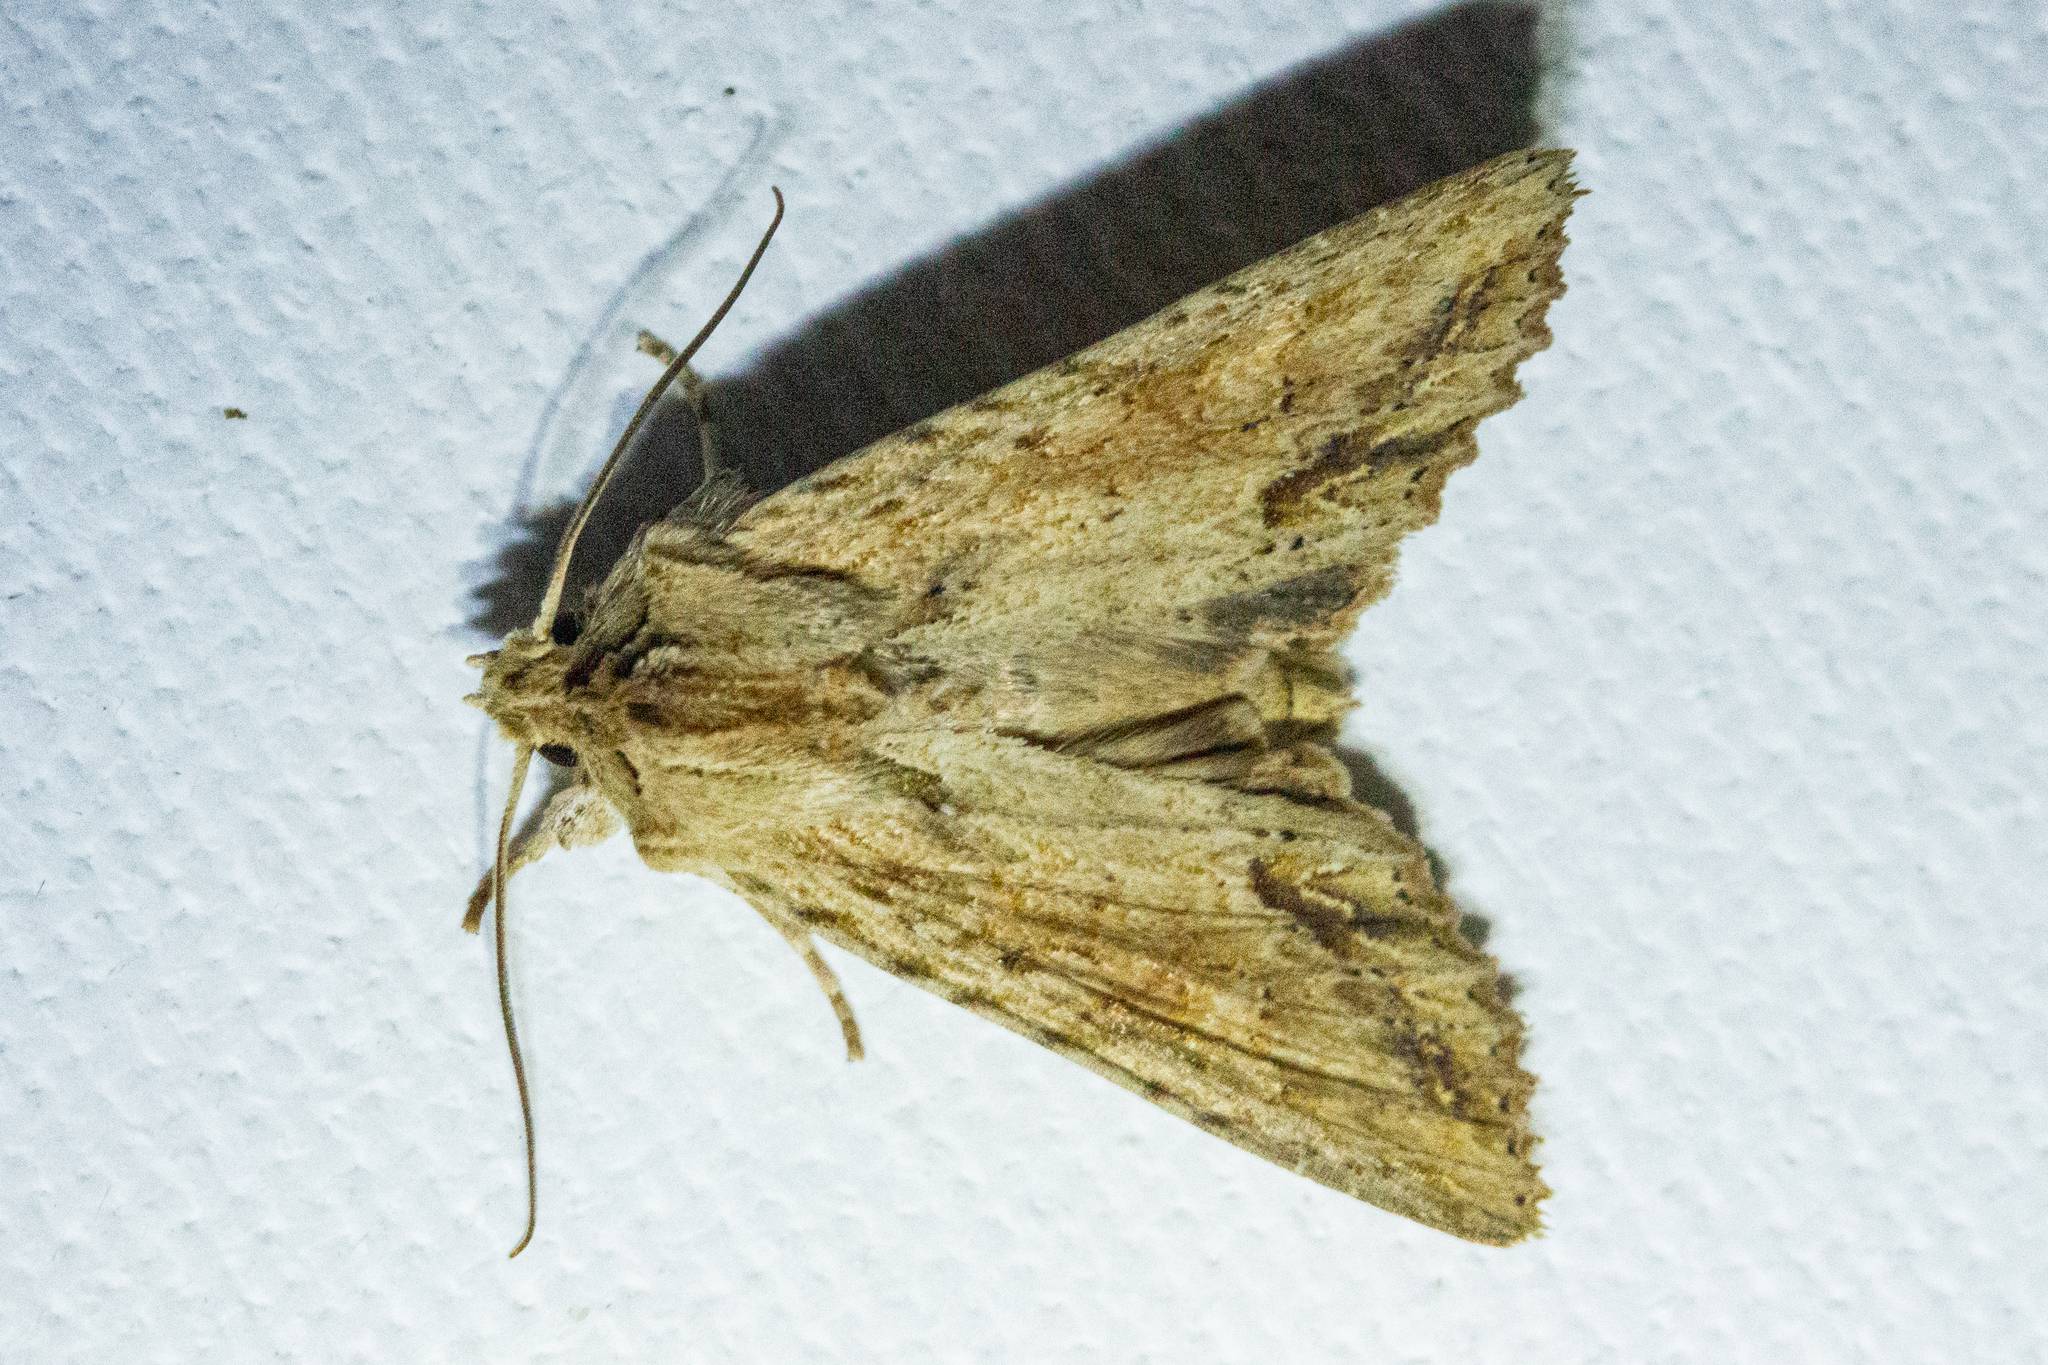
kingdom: Animalia
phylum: Arthropoda
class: Insecta
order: Lepidoptera
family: Noctuidae
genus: Ichneutica
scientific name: Ichneutica mollis
